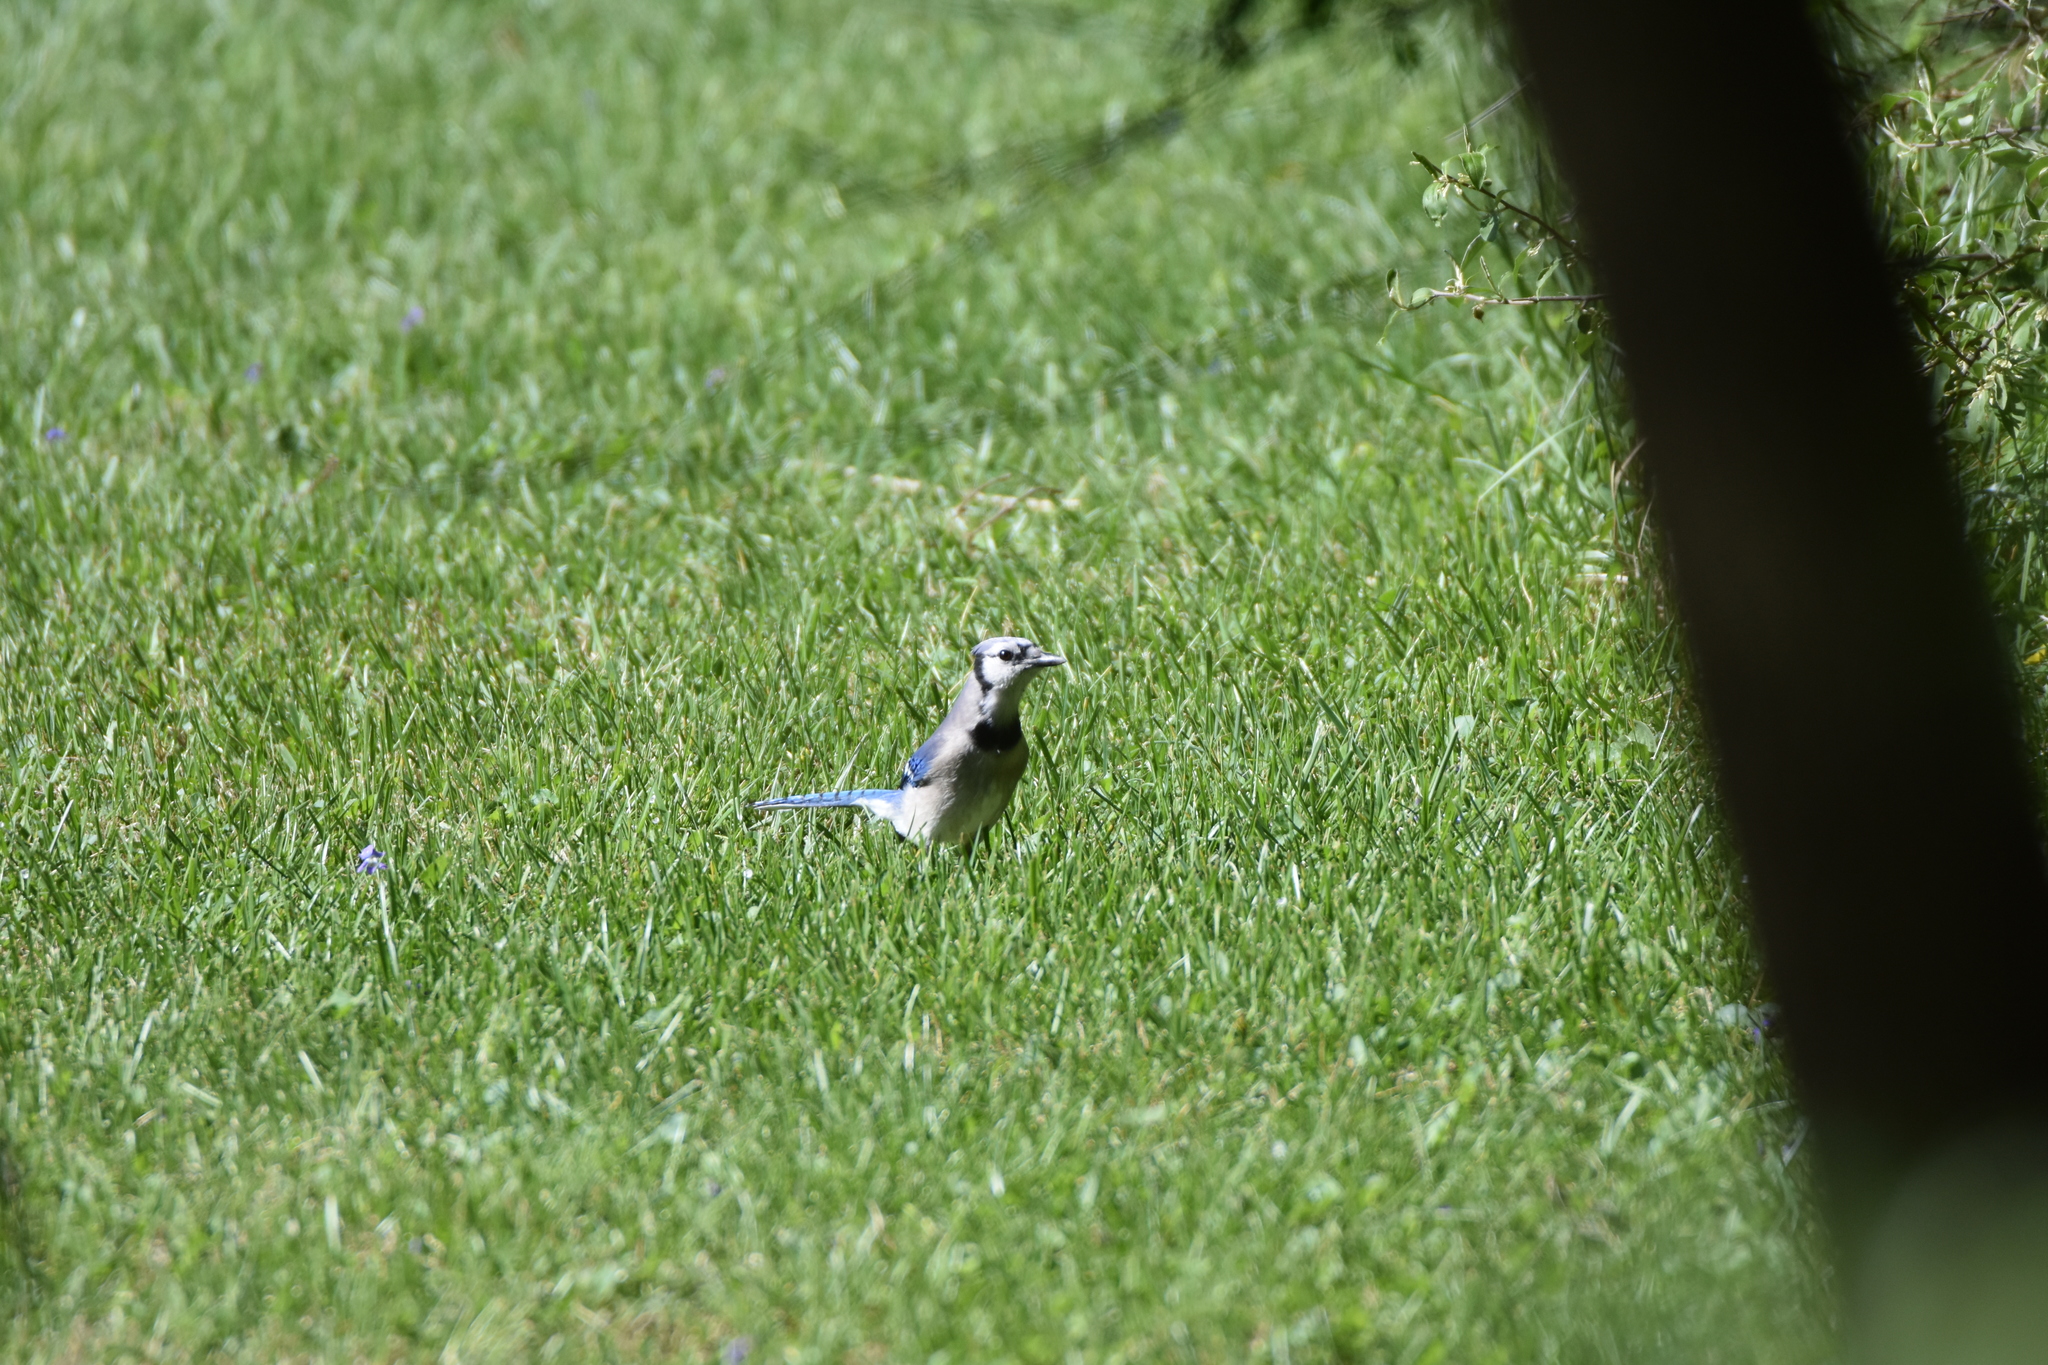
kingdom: Animalia
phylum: Chordata
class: Aves
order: Passeriformes
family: Corvidae
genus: Cyanocitta
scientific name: Cyanocitta cristata
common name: Blue jay
